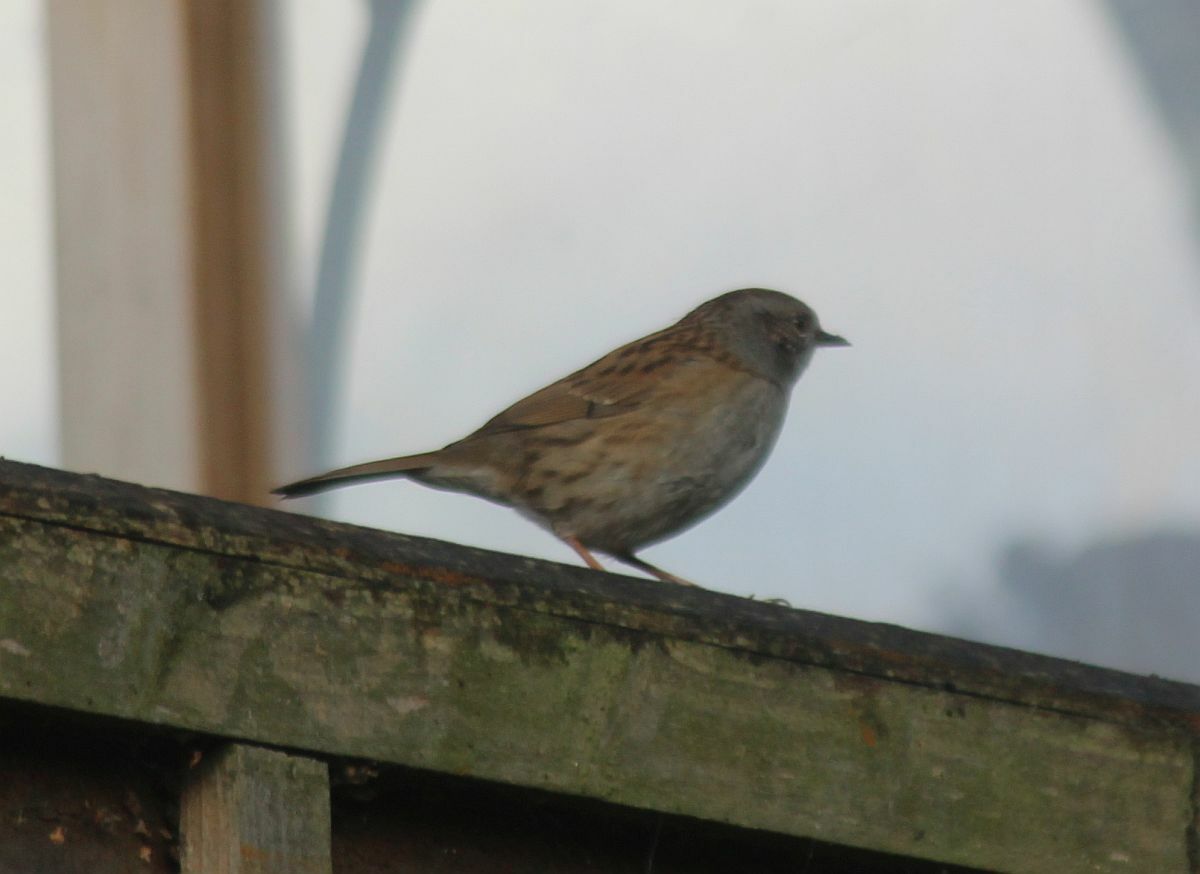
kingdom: Animalia
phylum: Chordata
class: Aves
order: Passeriformes
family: Prunellidae
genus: Prunella
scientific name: Prunella modularis
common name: Dunnock
